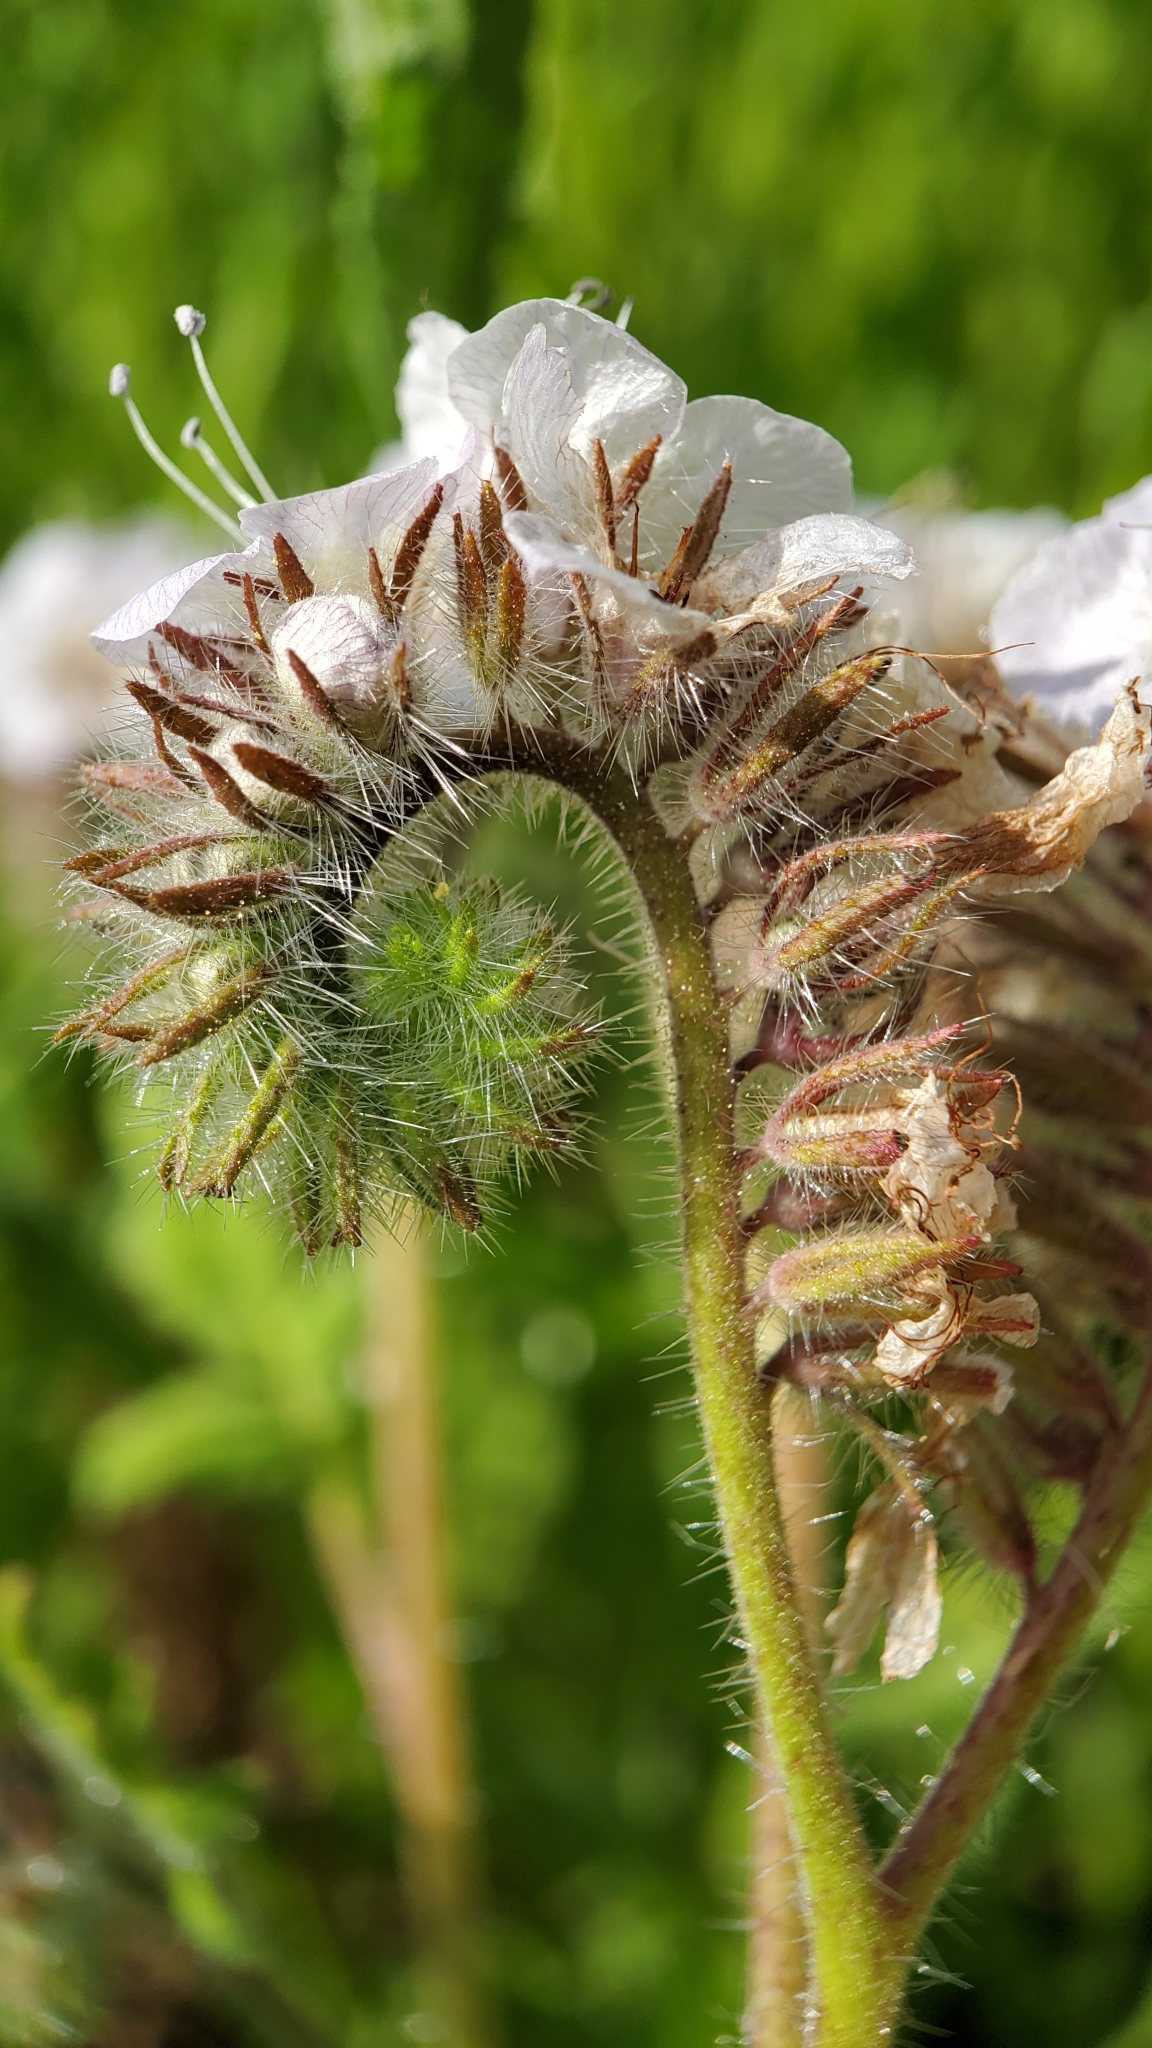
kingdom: Plantae
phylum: Tracheophyta
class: Magnoliopsida
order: Boraginales
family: Hydrophyllaceae
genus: Phacelia
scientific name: Phacelia cicutaria
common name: Caterpillar phacelia
